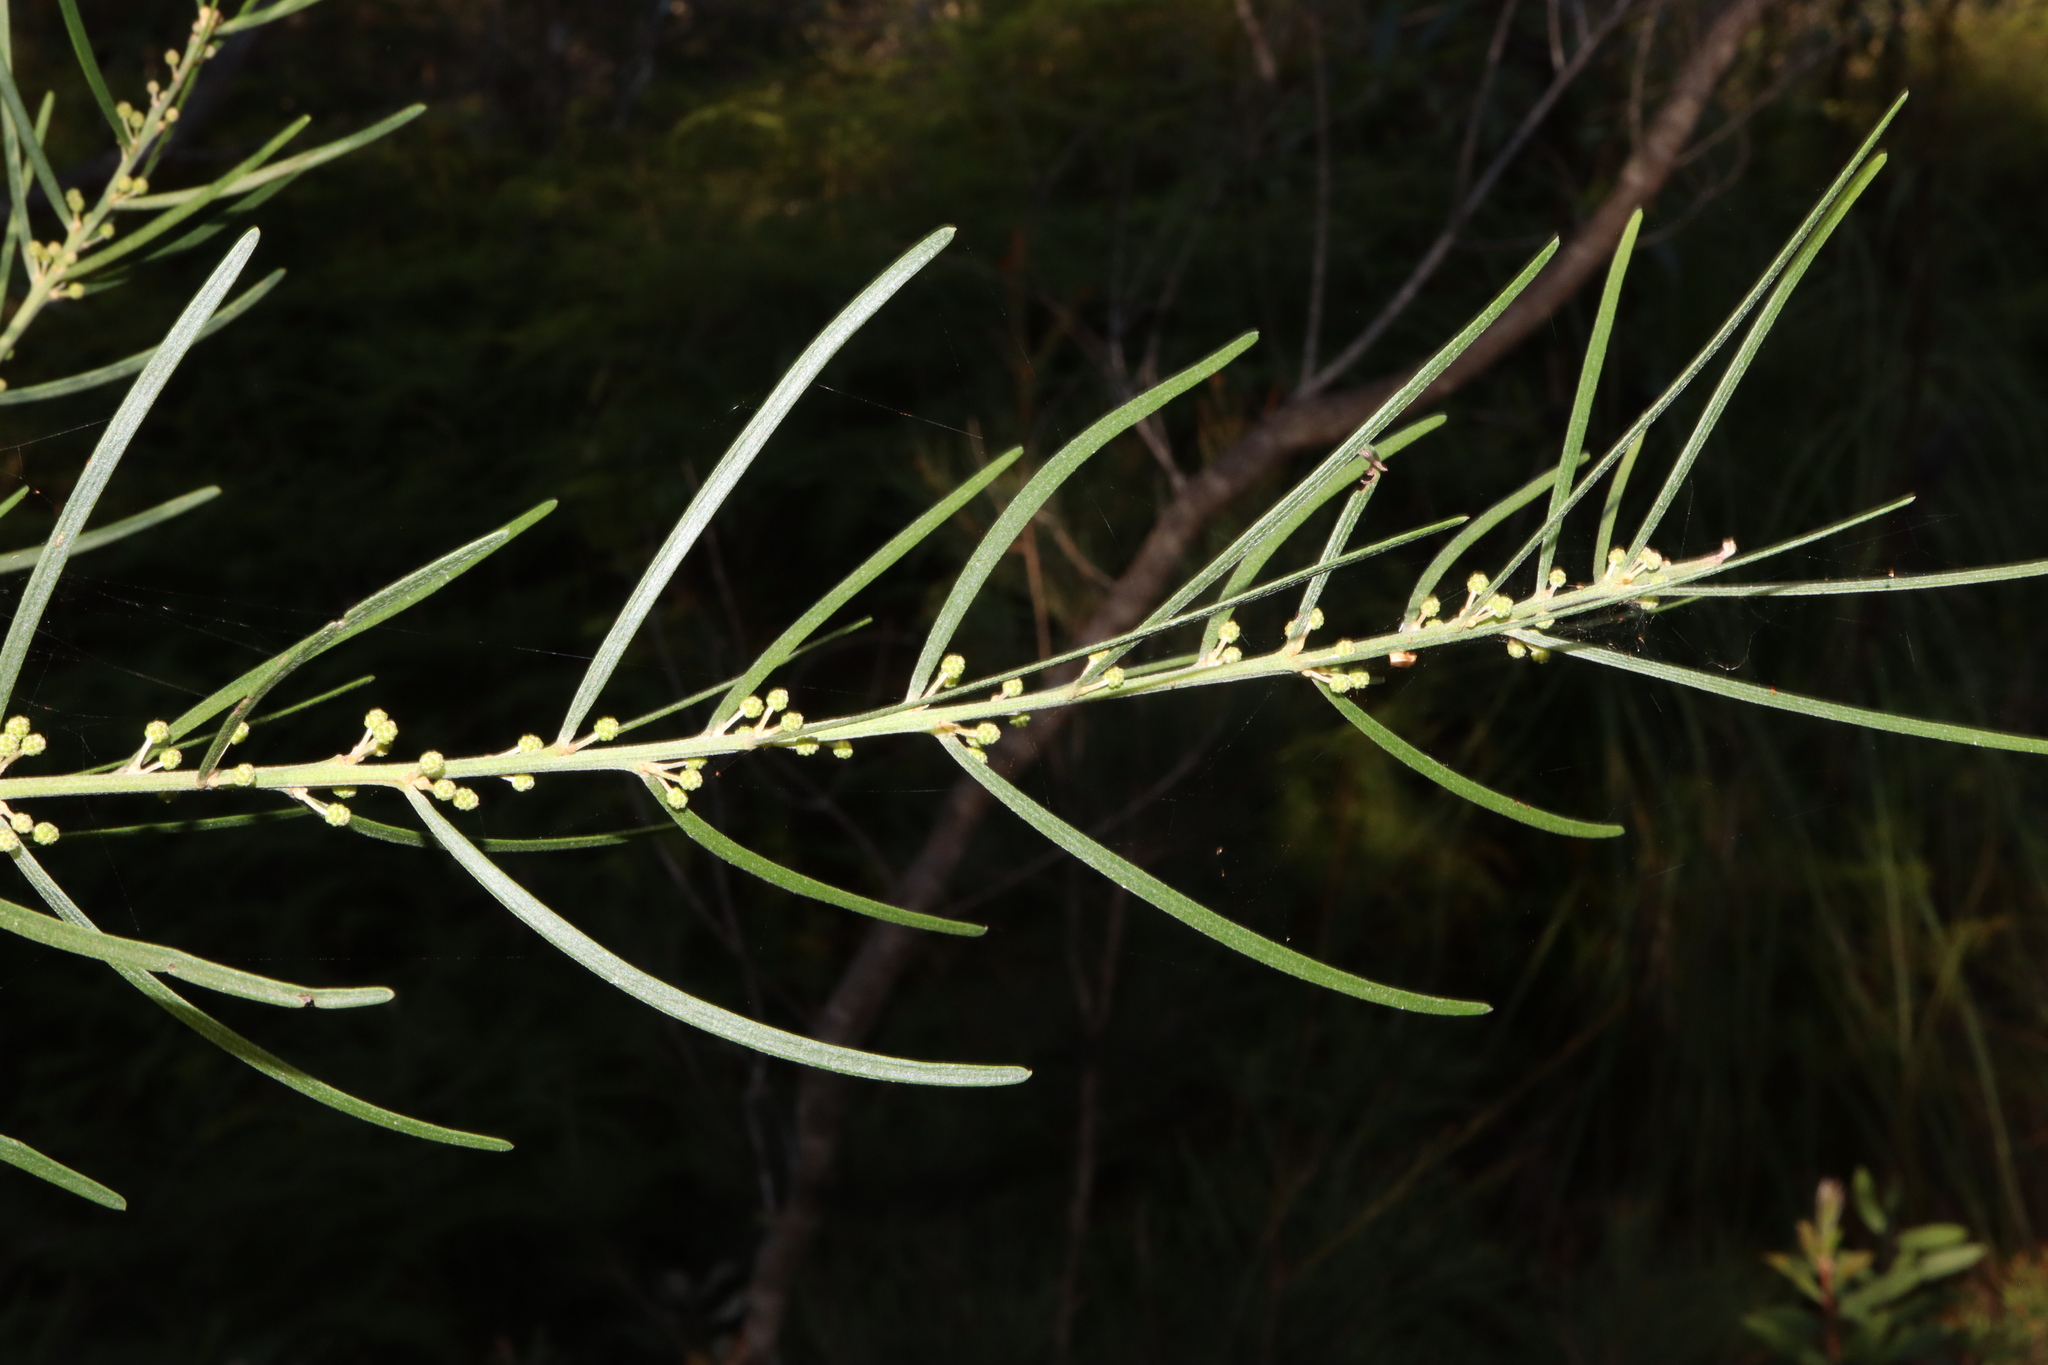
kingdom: Plantae
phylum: Tracheophyta
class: Magnoliopsida
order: Fabales
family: Fabaceae
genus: Acacia
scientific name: Acacia elongata
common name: Swamp wattle
